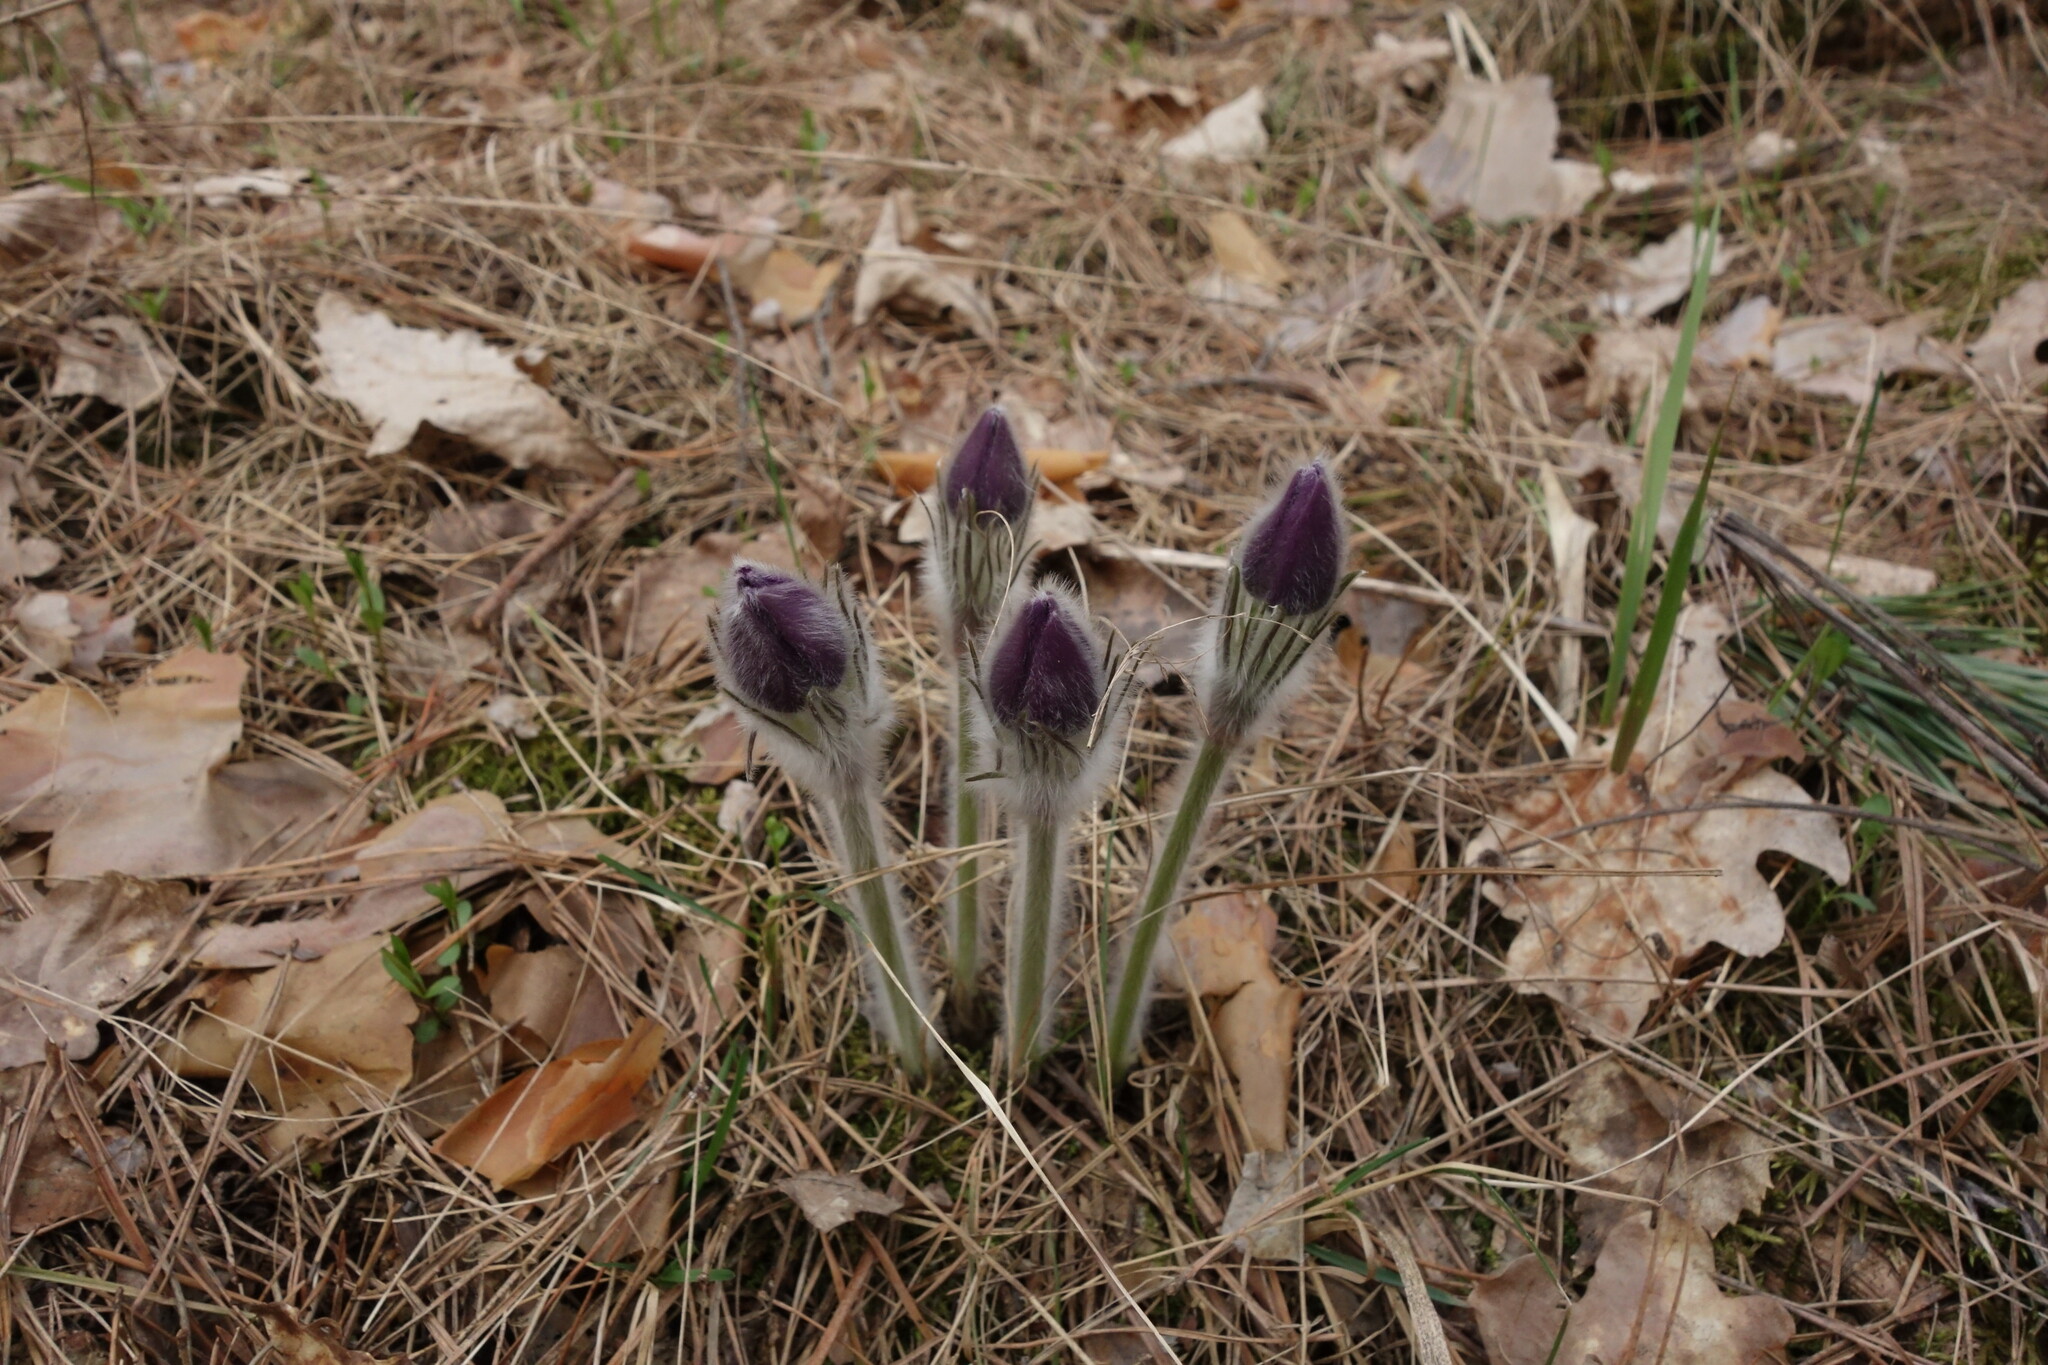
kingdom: Plantae
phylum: Tracheophyta
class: Magnoliopsida
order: Ranunculales
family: Ranunculaceae
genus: Pulsatilla
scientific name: Pulsatilla patens
